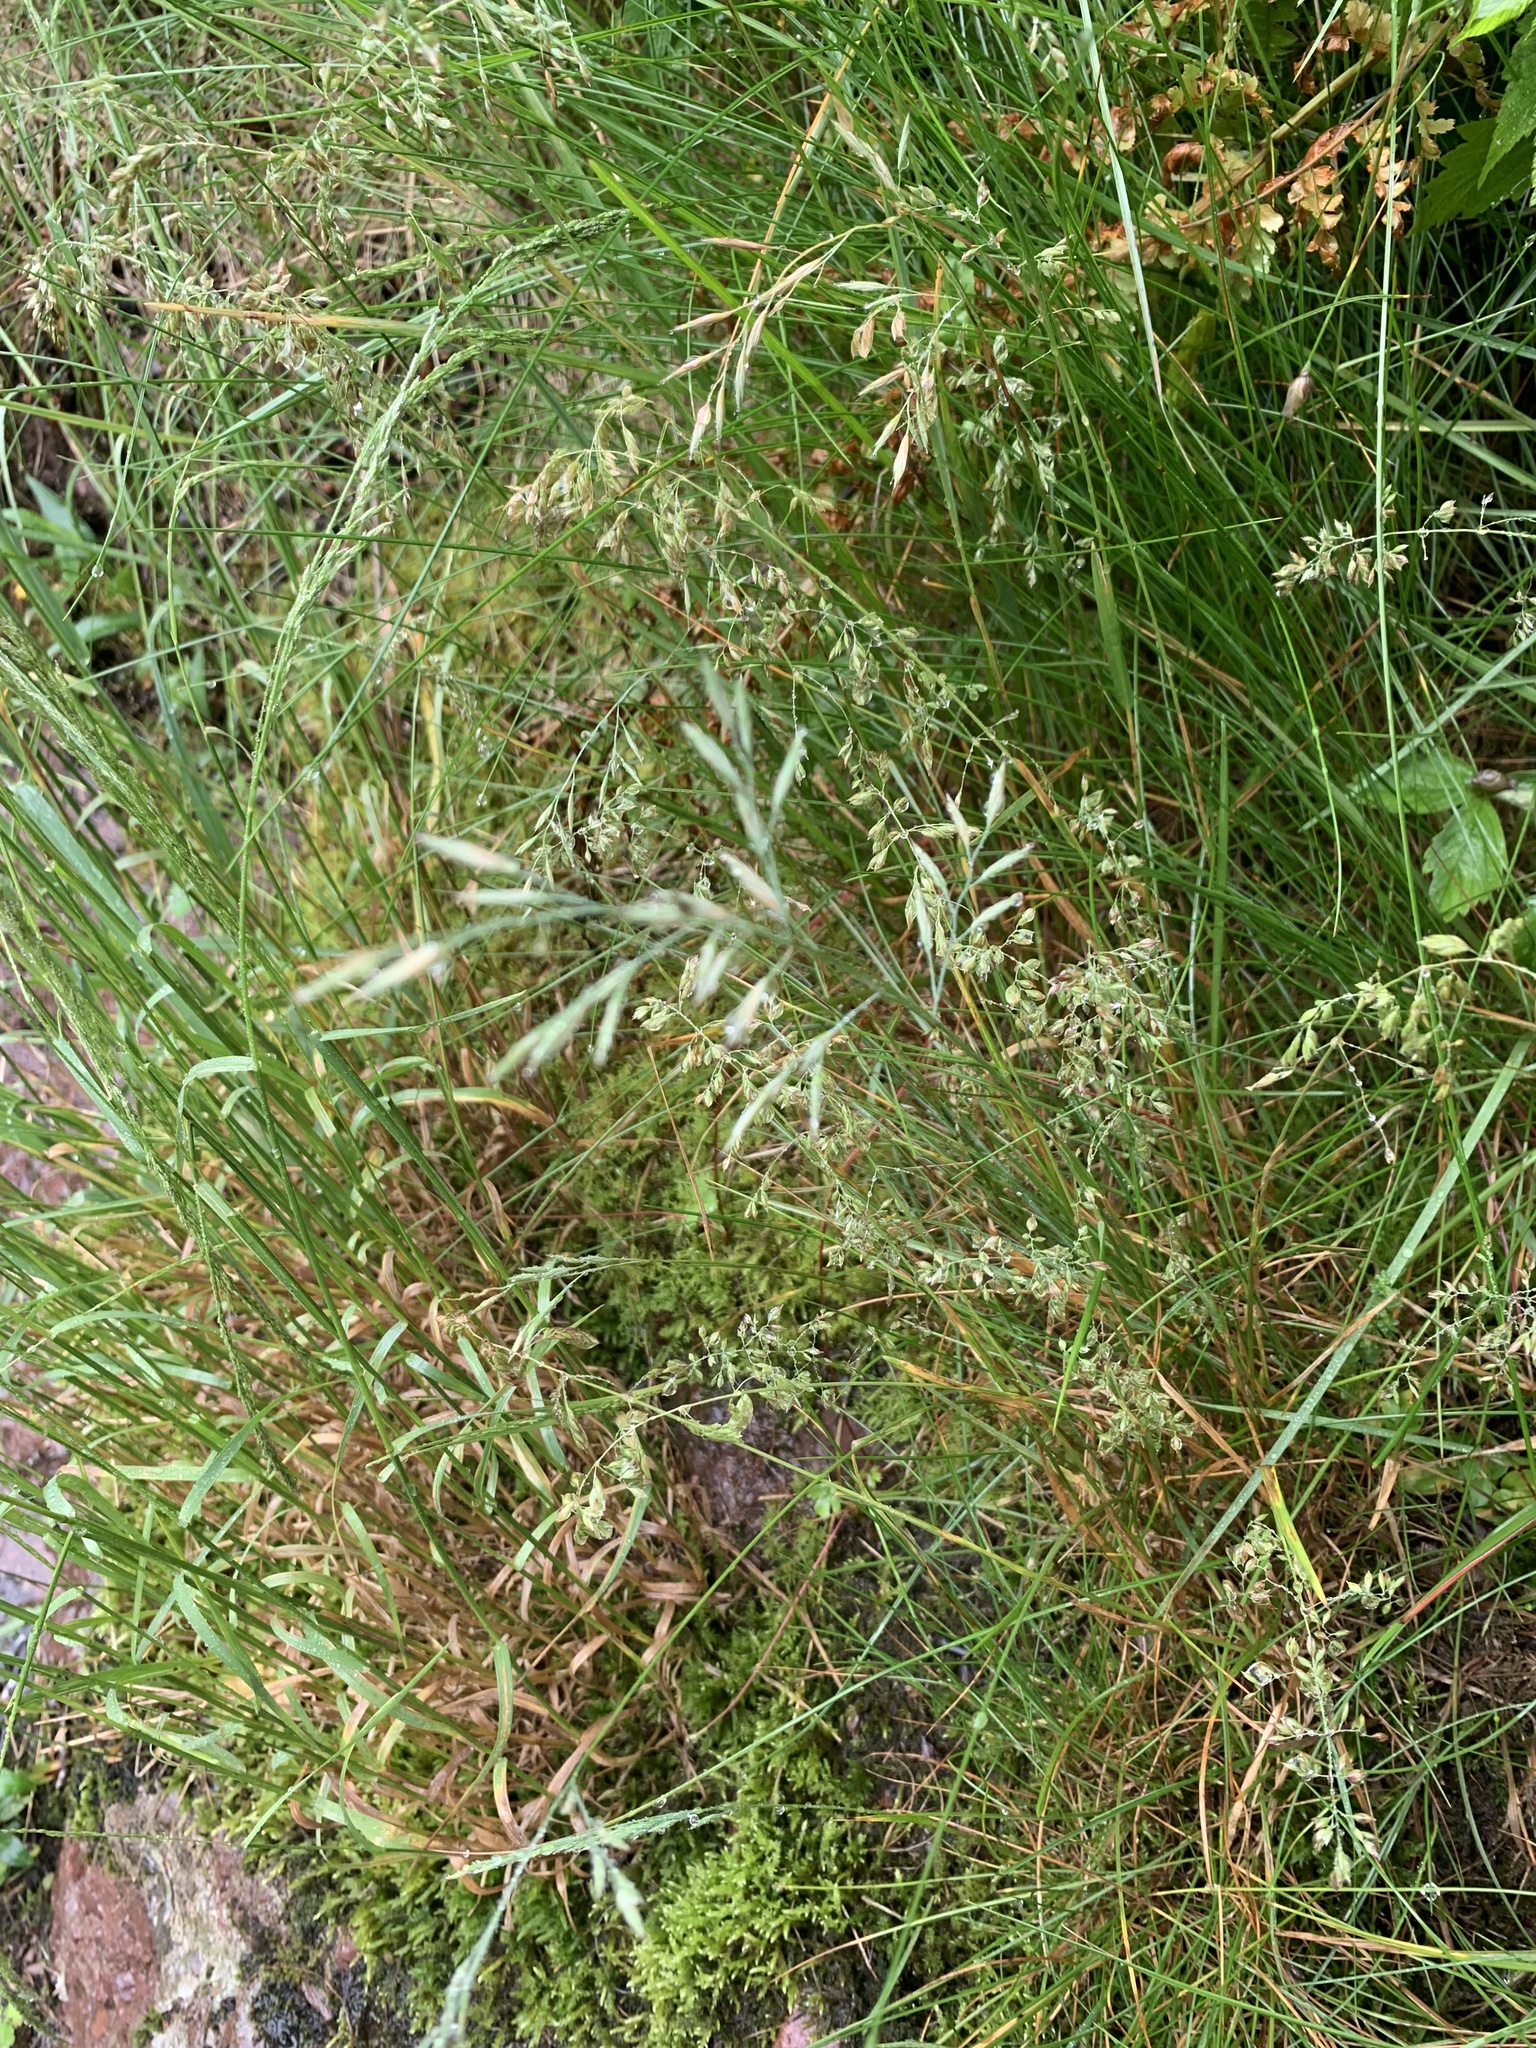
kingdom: Plantae
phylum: Tracheophyta
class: Liliopsida
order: Poales
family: Poaceae
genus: Festuca
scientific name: Festuca rubra
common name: Red fescue
